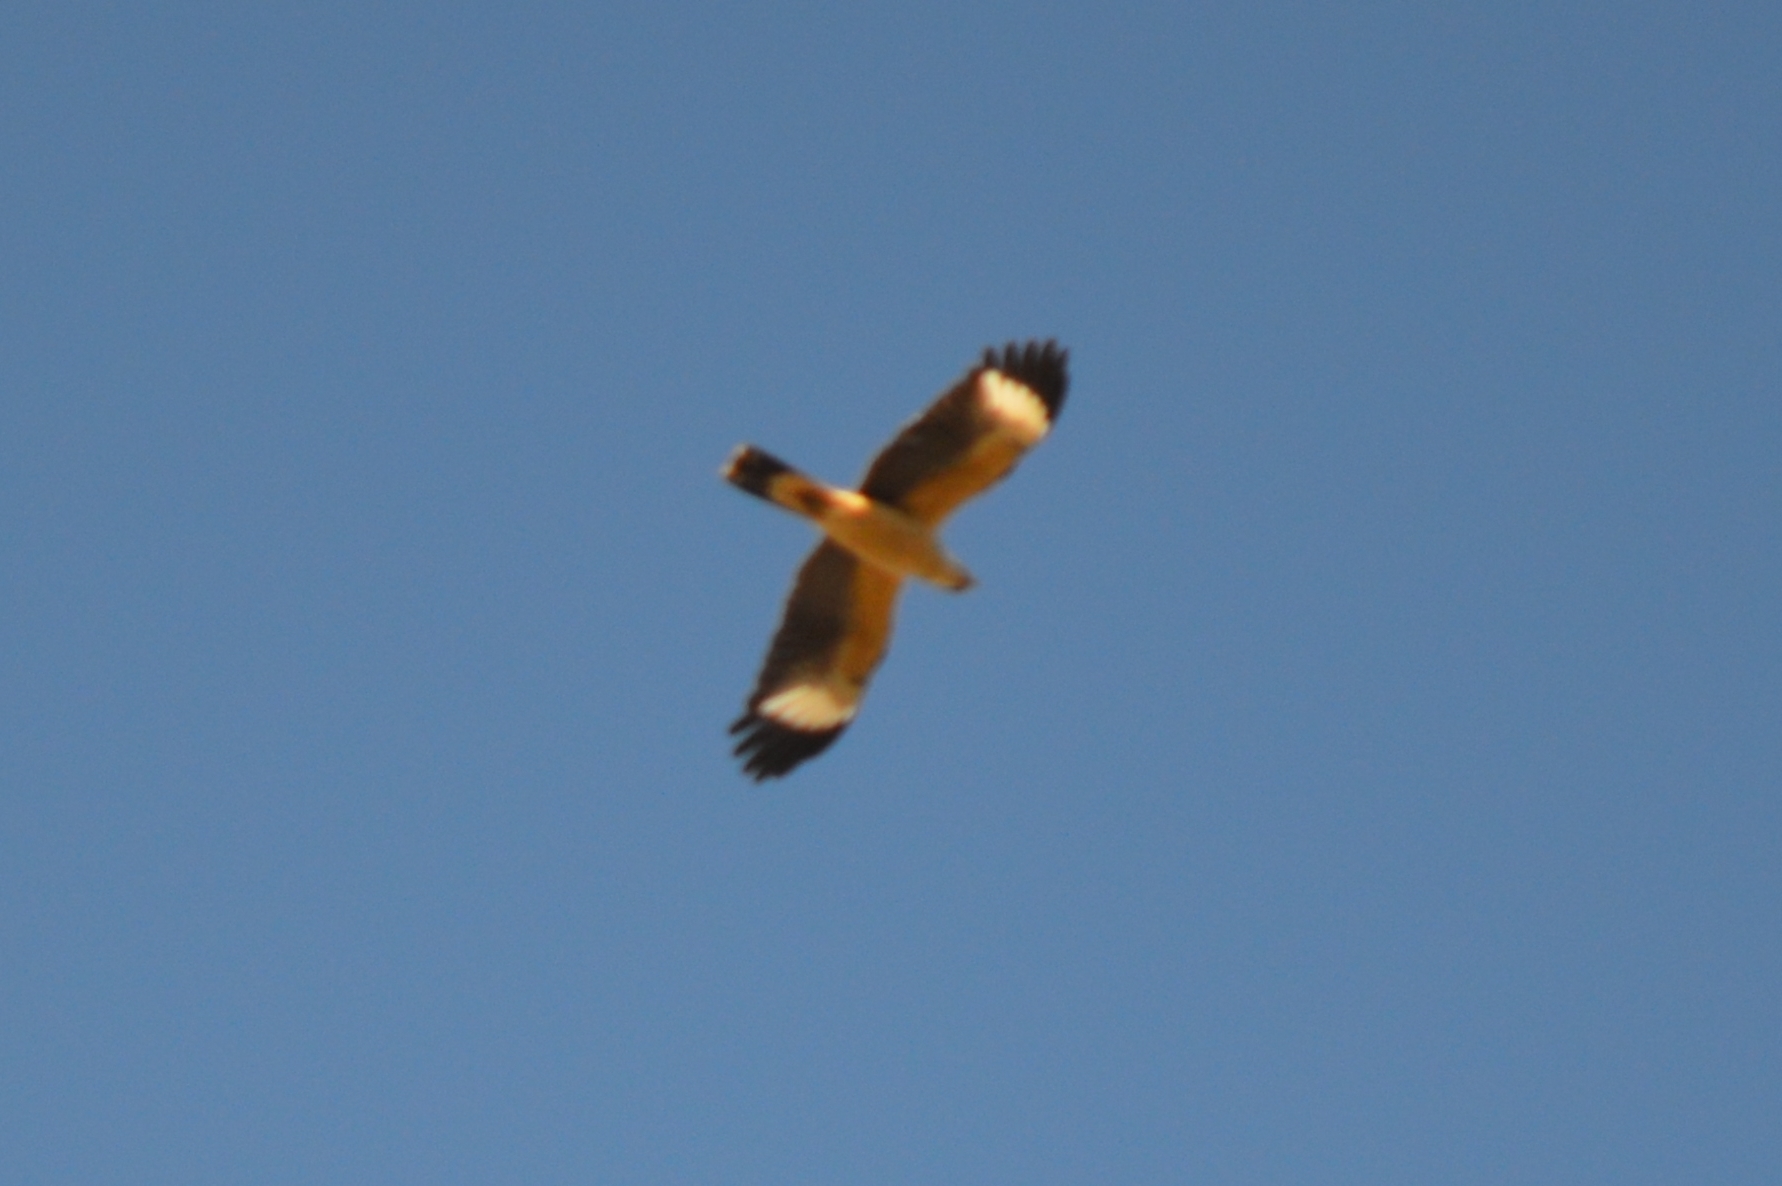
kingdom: Animalia
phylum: Chordata
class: Aves
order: Falconiformes
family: Falconidae
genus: Daptrius
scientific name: Daptrius
